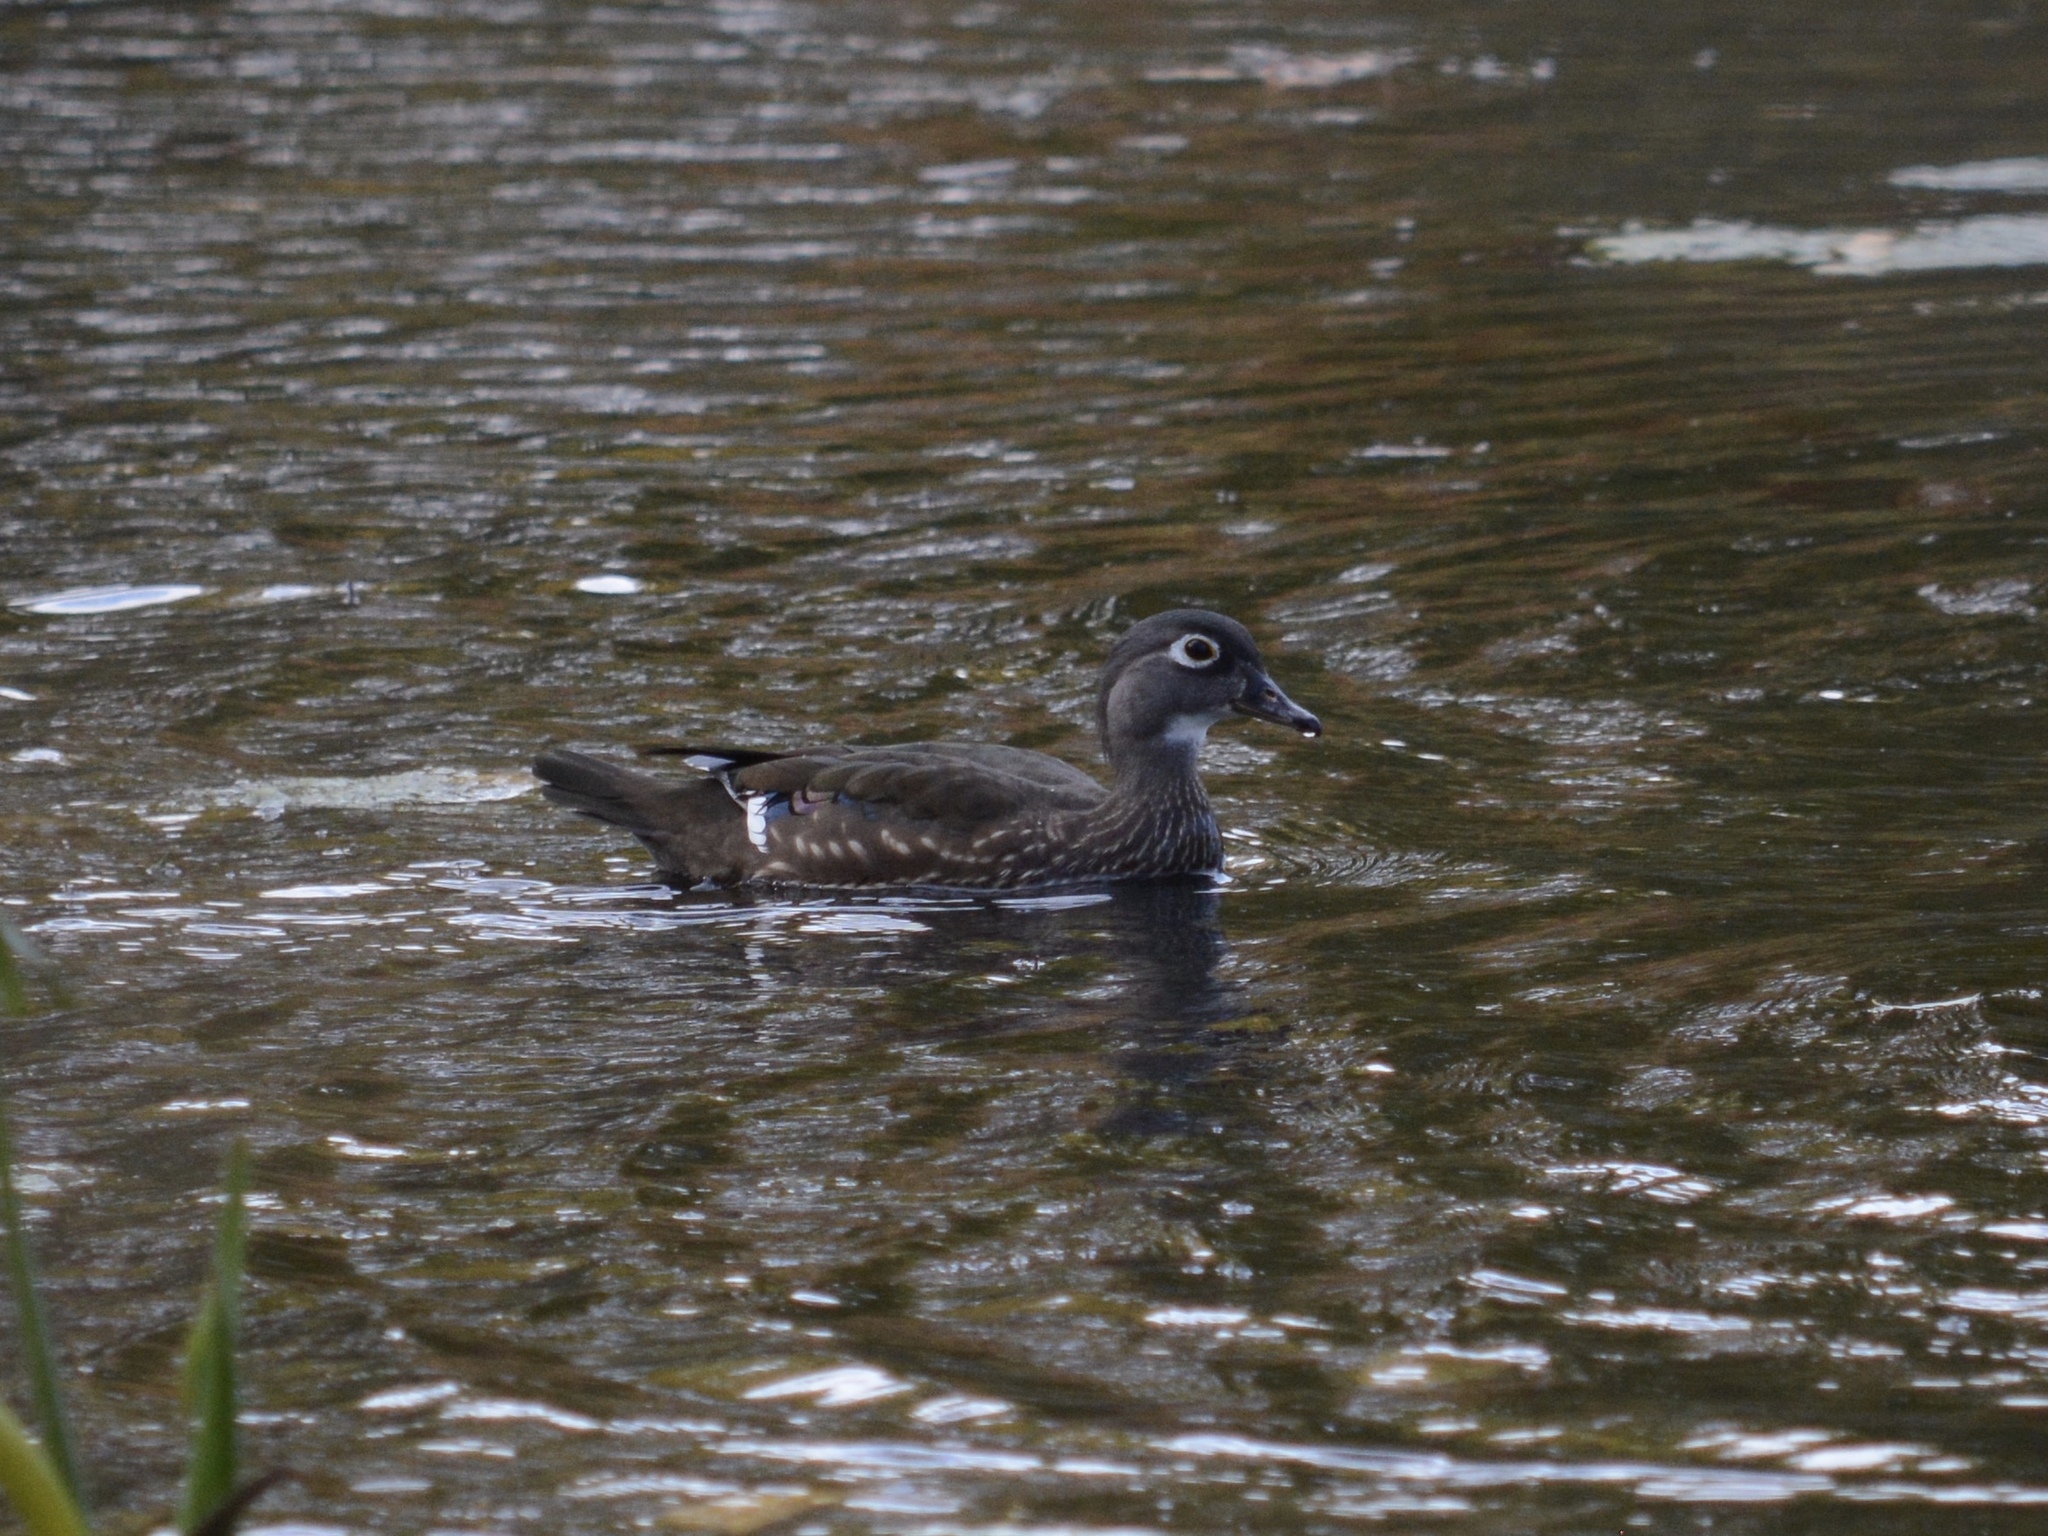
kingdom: Animalia
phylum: Chordata
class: Aves
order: Anseriformes
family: Anatidae
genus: Aix
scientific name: Aix sponsa
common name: Wood duck
